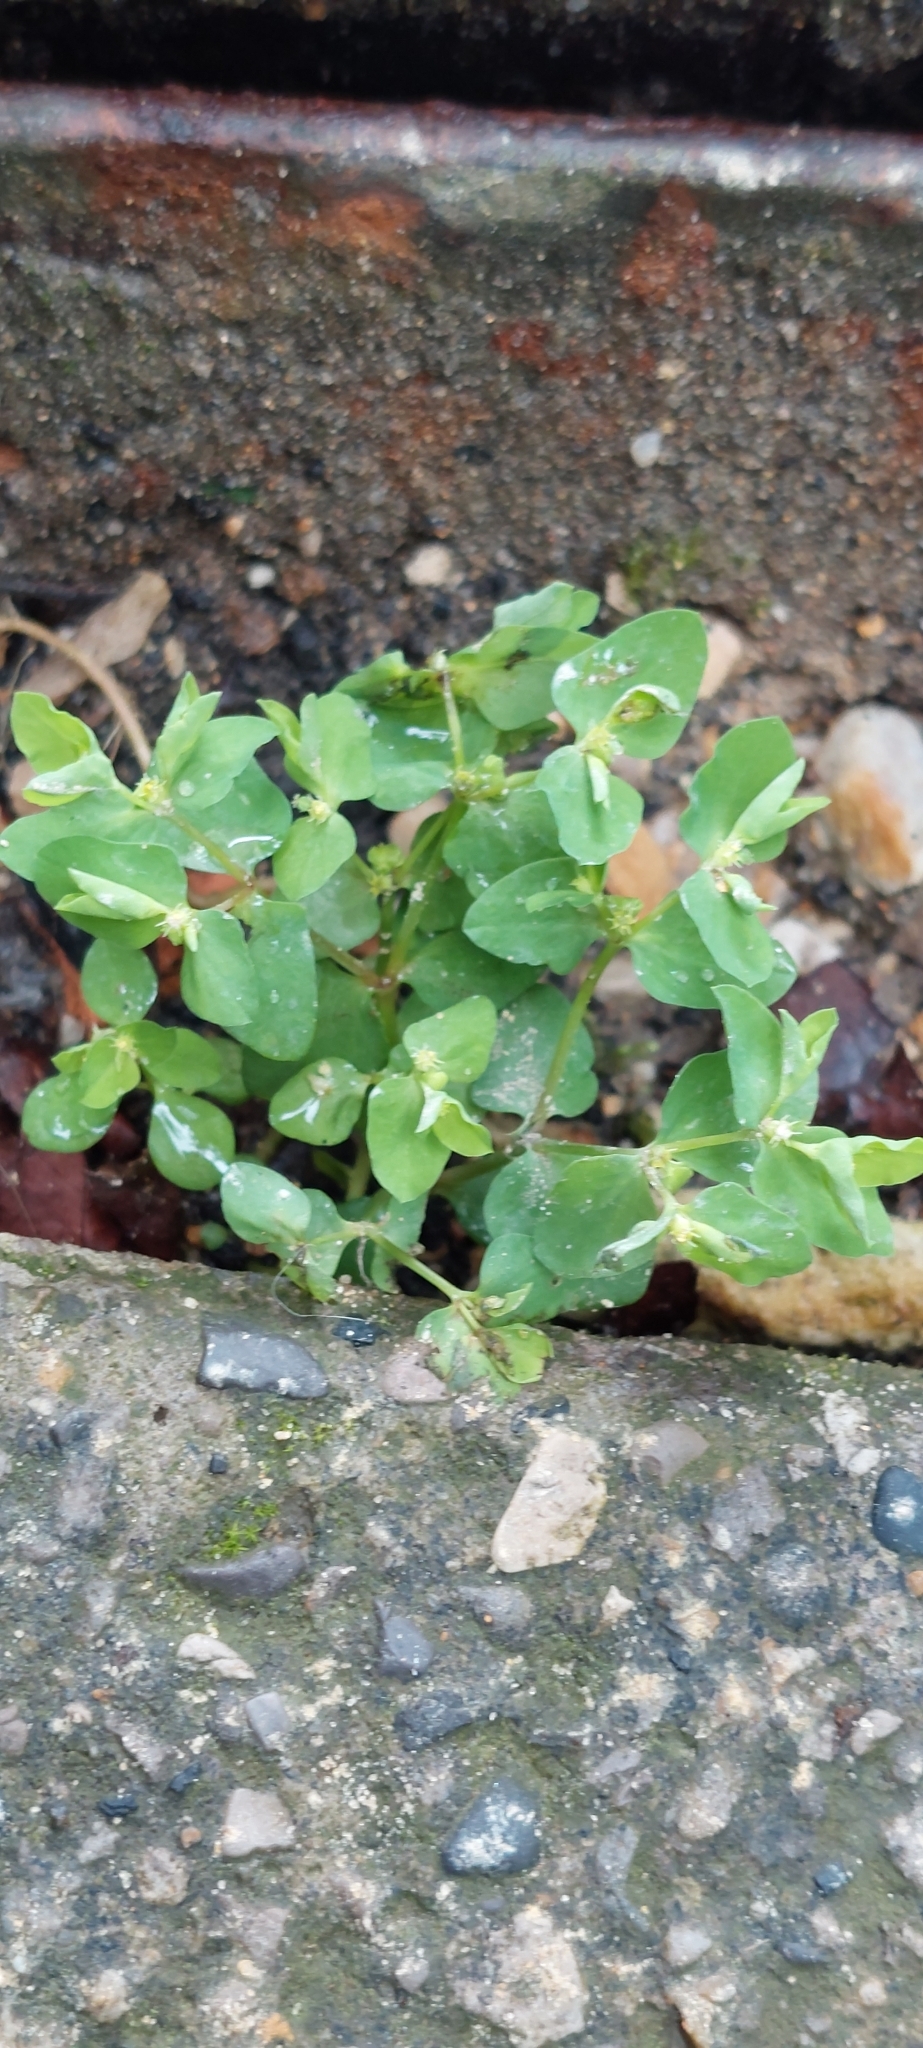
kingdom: Plantae
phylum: Tracheophyta
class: Magnoliopsida
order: Malpighiales
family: Euphorbiaceae
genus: Euphorbia
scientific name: Euphorbia peplus
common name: Petty spurge
